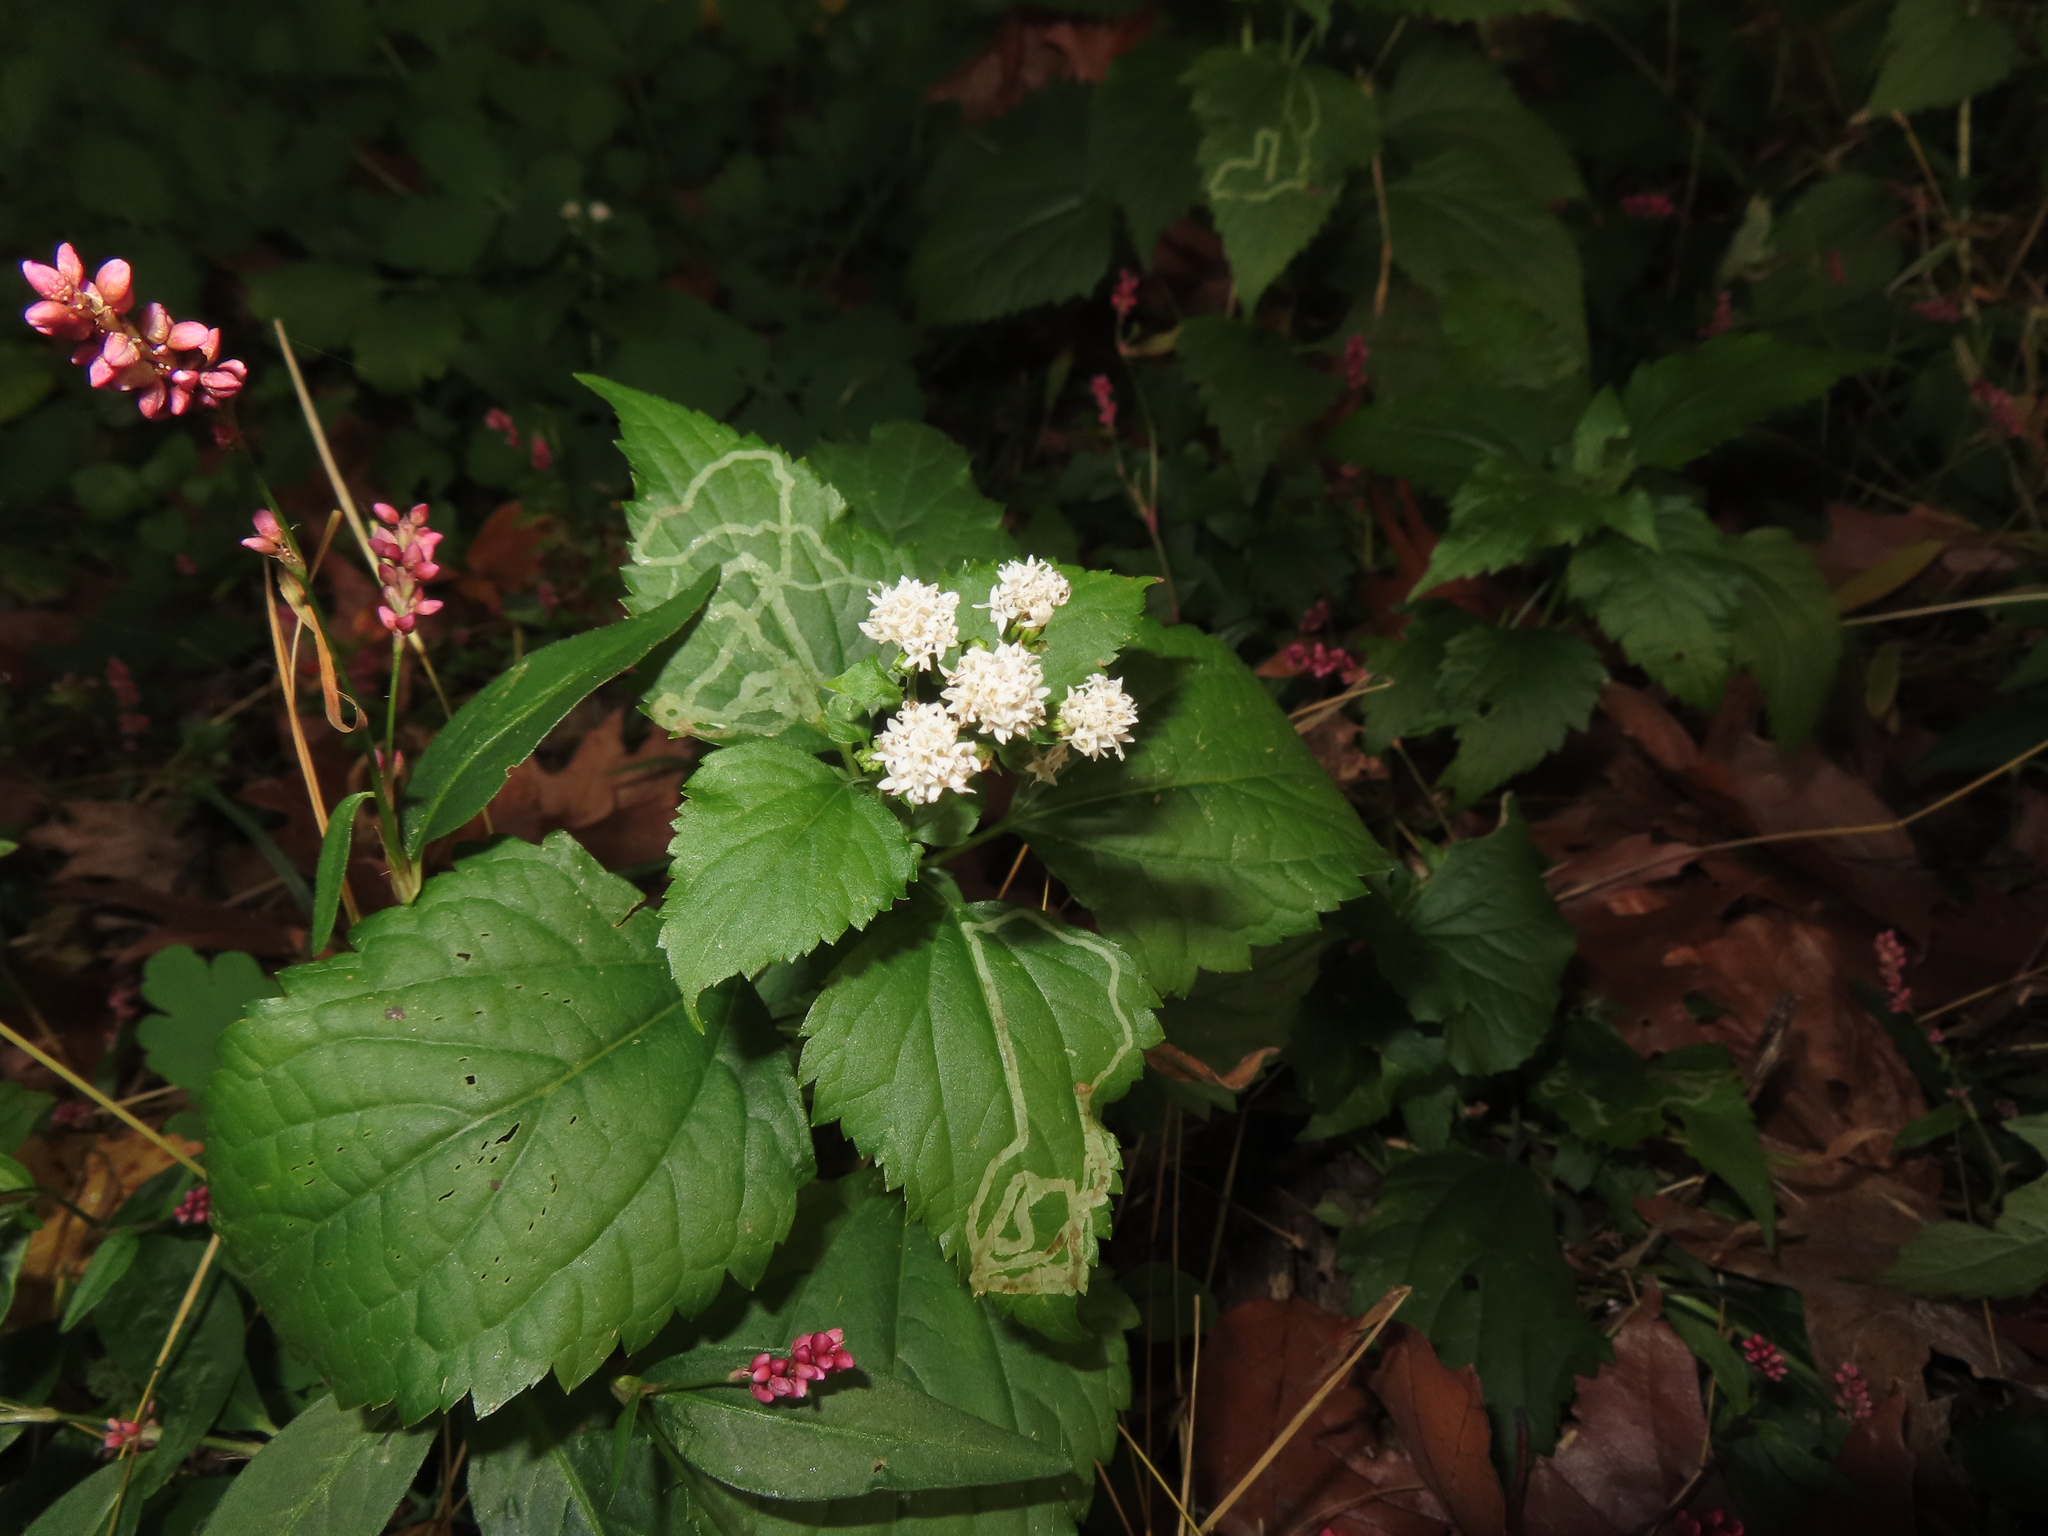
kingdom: Animalia
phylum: Arthropoda
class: Insecta
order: Diptera
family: Agromyzidae
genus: Liriomyza
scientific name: Liriomyza
